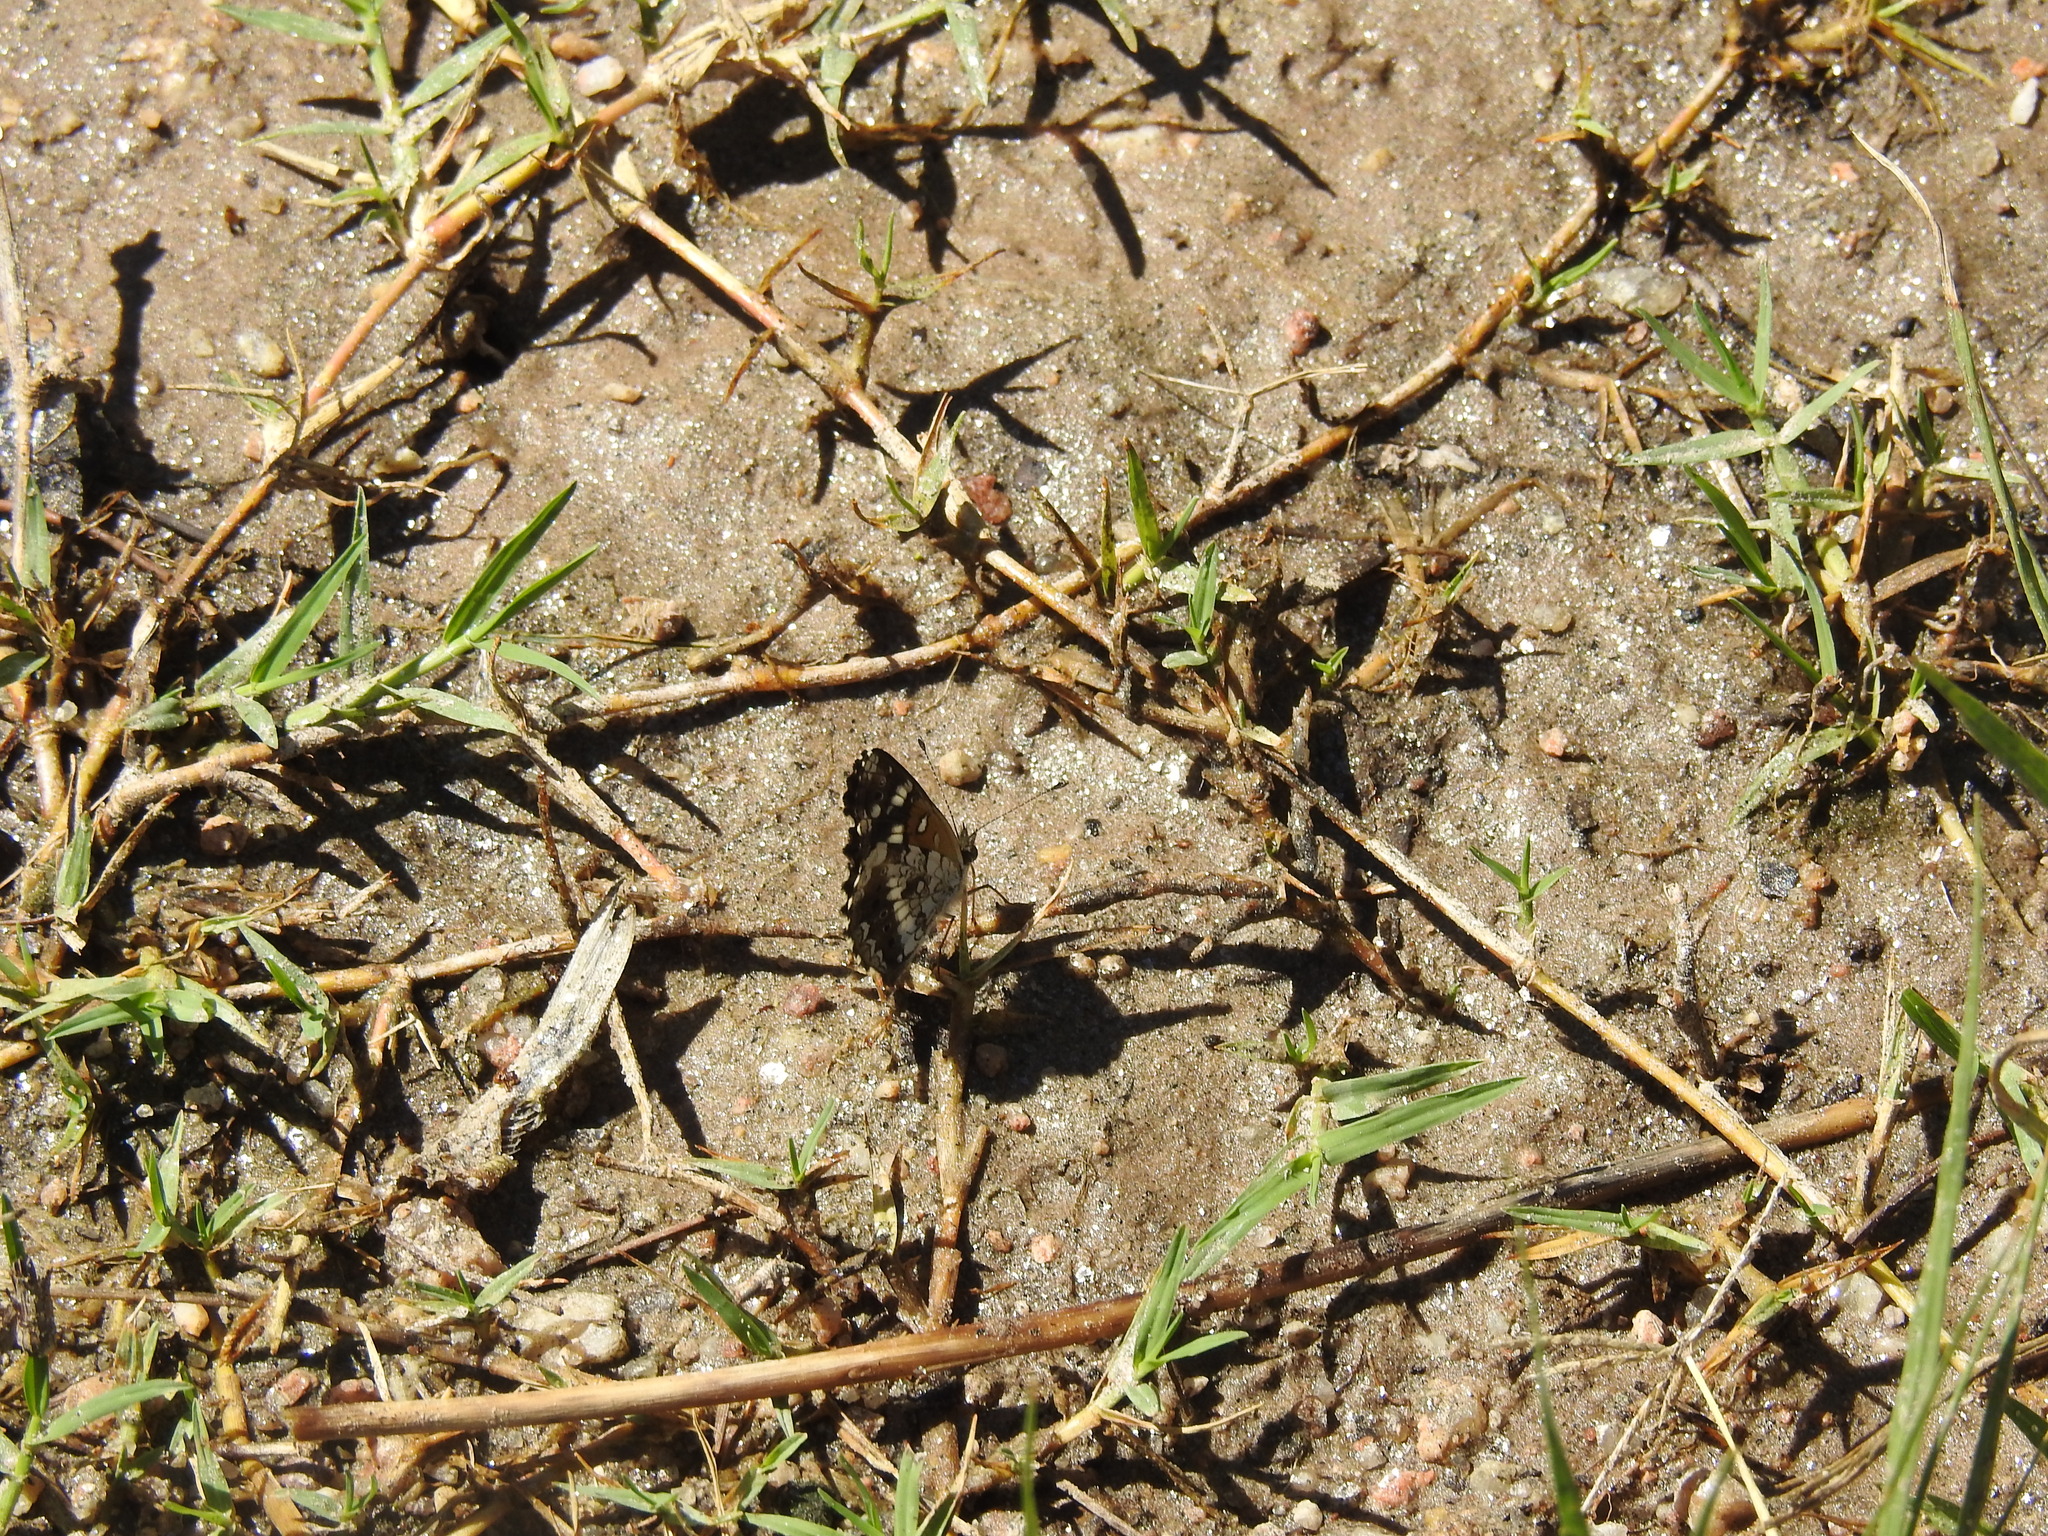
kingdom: Animalia
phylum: Arthropoda
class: Insecta
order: Lepidoptera
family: Nymphalidae
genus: Ortilia
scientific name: Ortilia ithra
